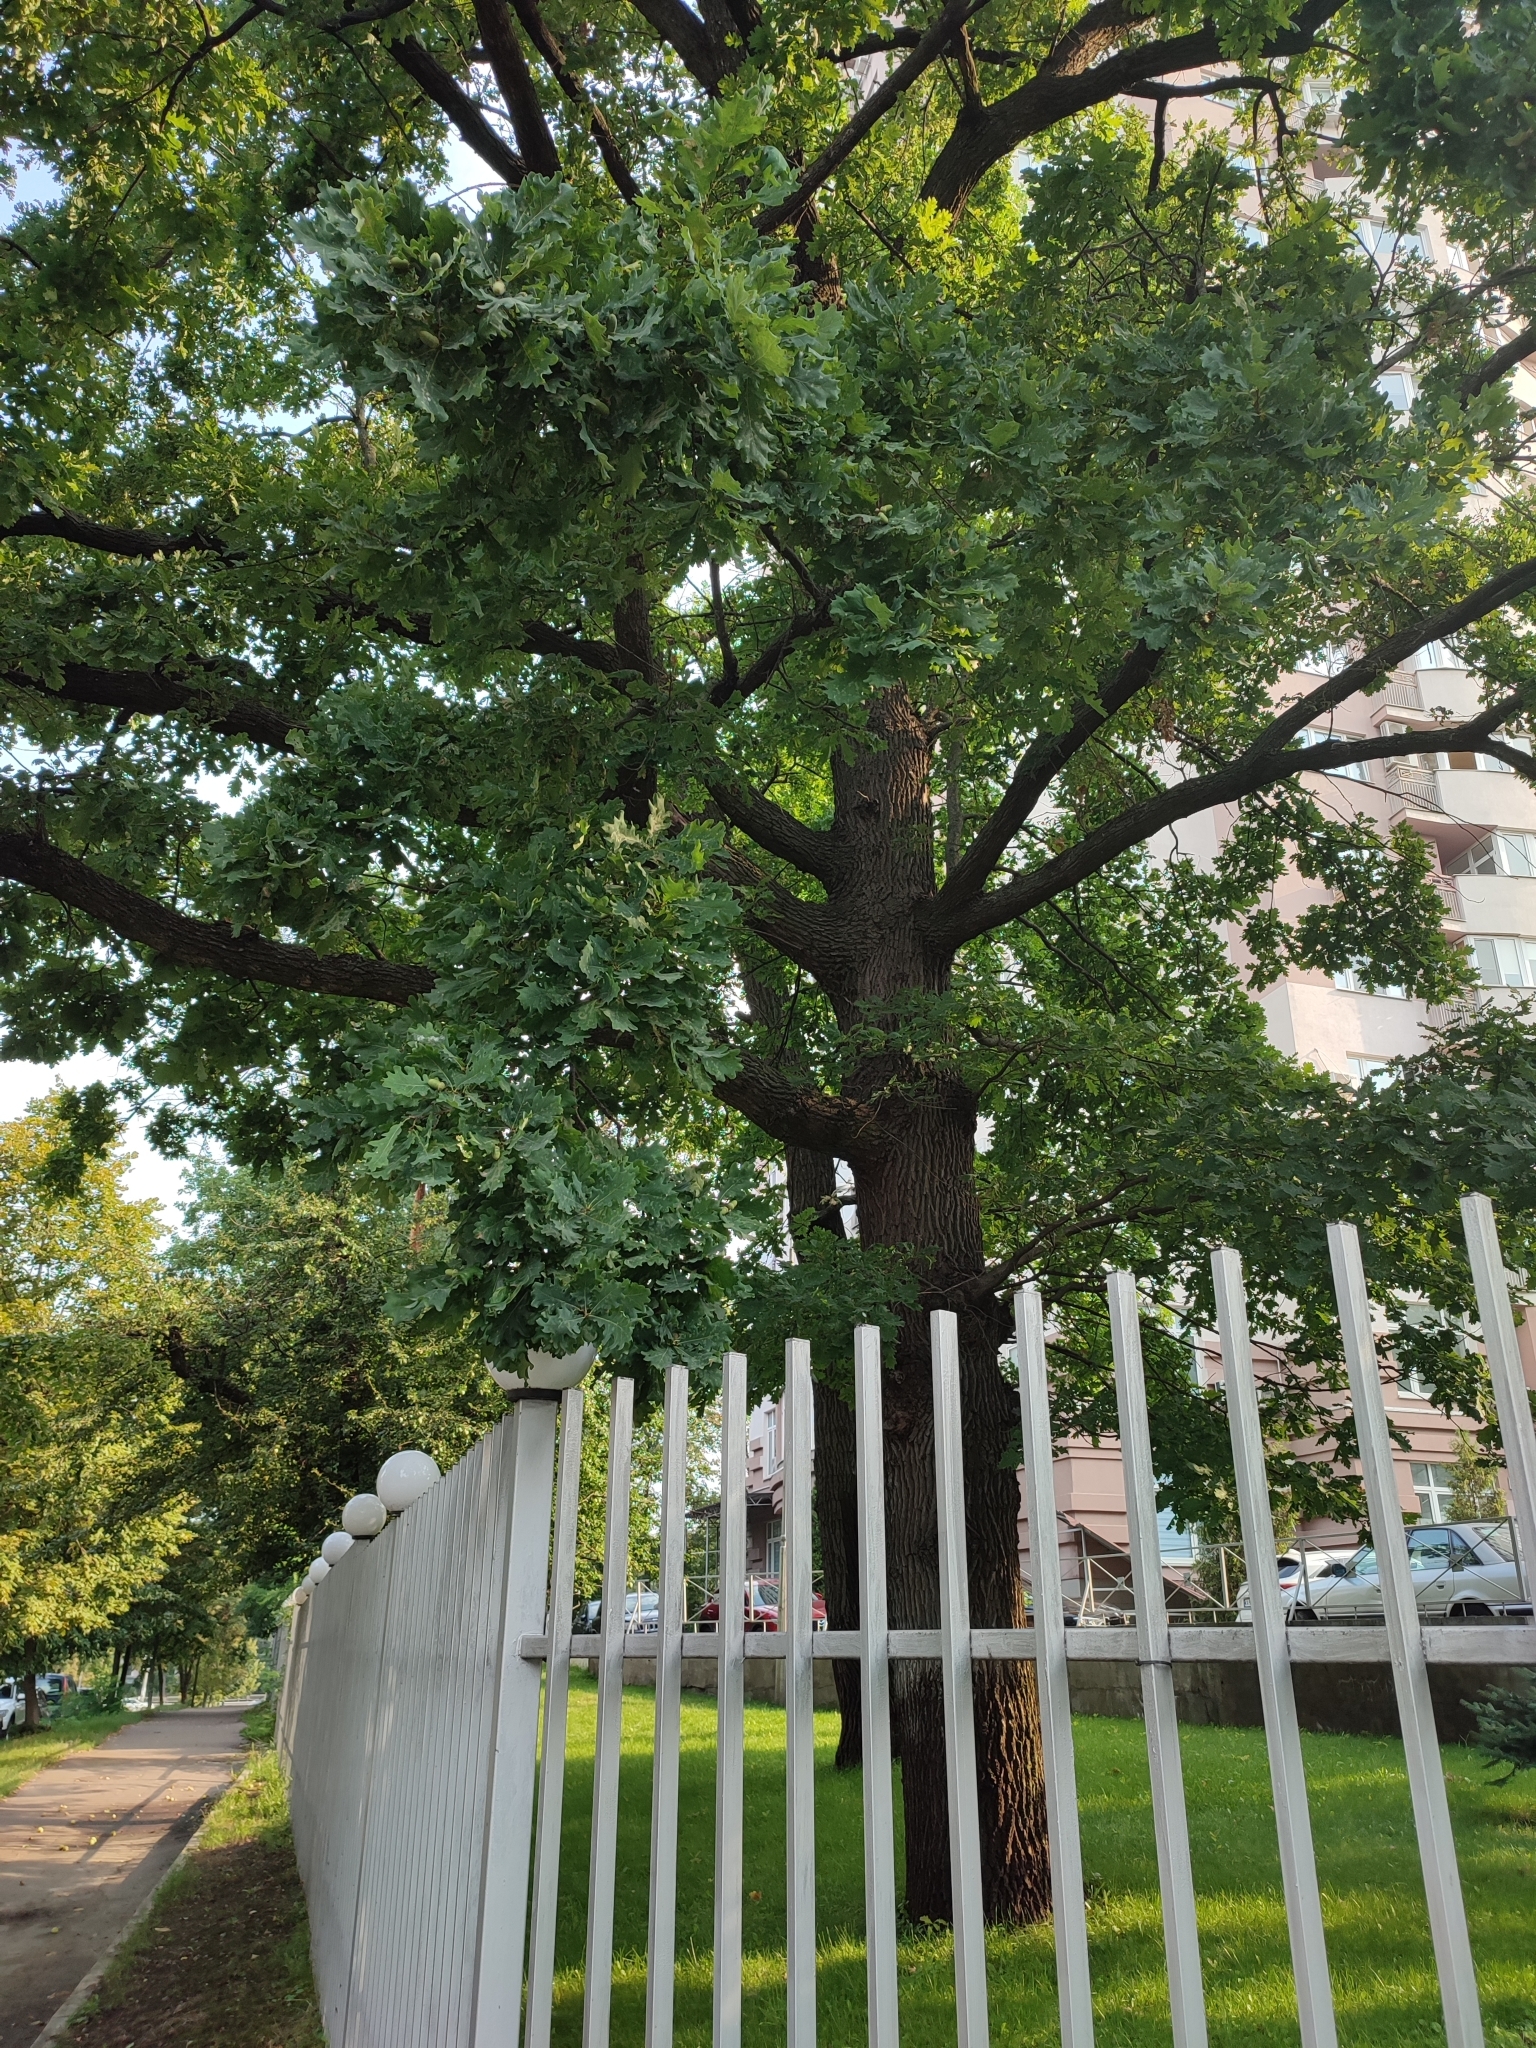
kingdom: Plantae
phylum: Tracheophyta
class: Magnoliopsida
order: Fagales
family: Fagaceae
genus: Quercus
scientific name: Quercus robur
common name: Pedunculate oak
